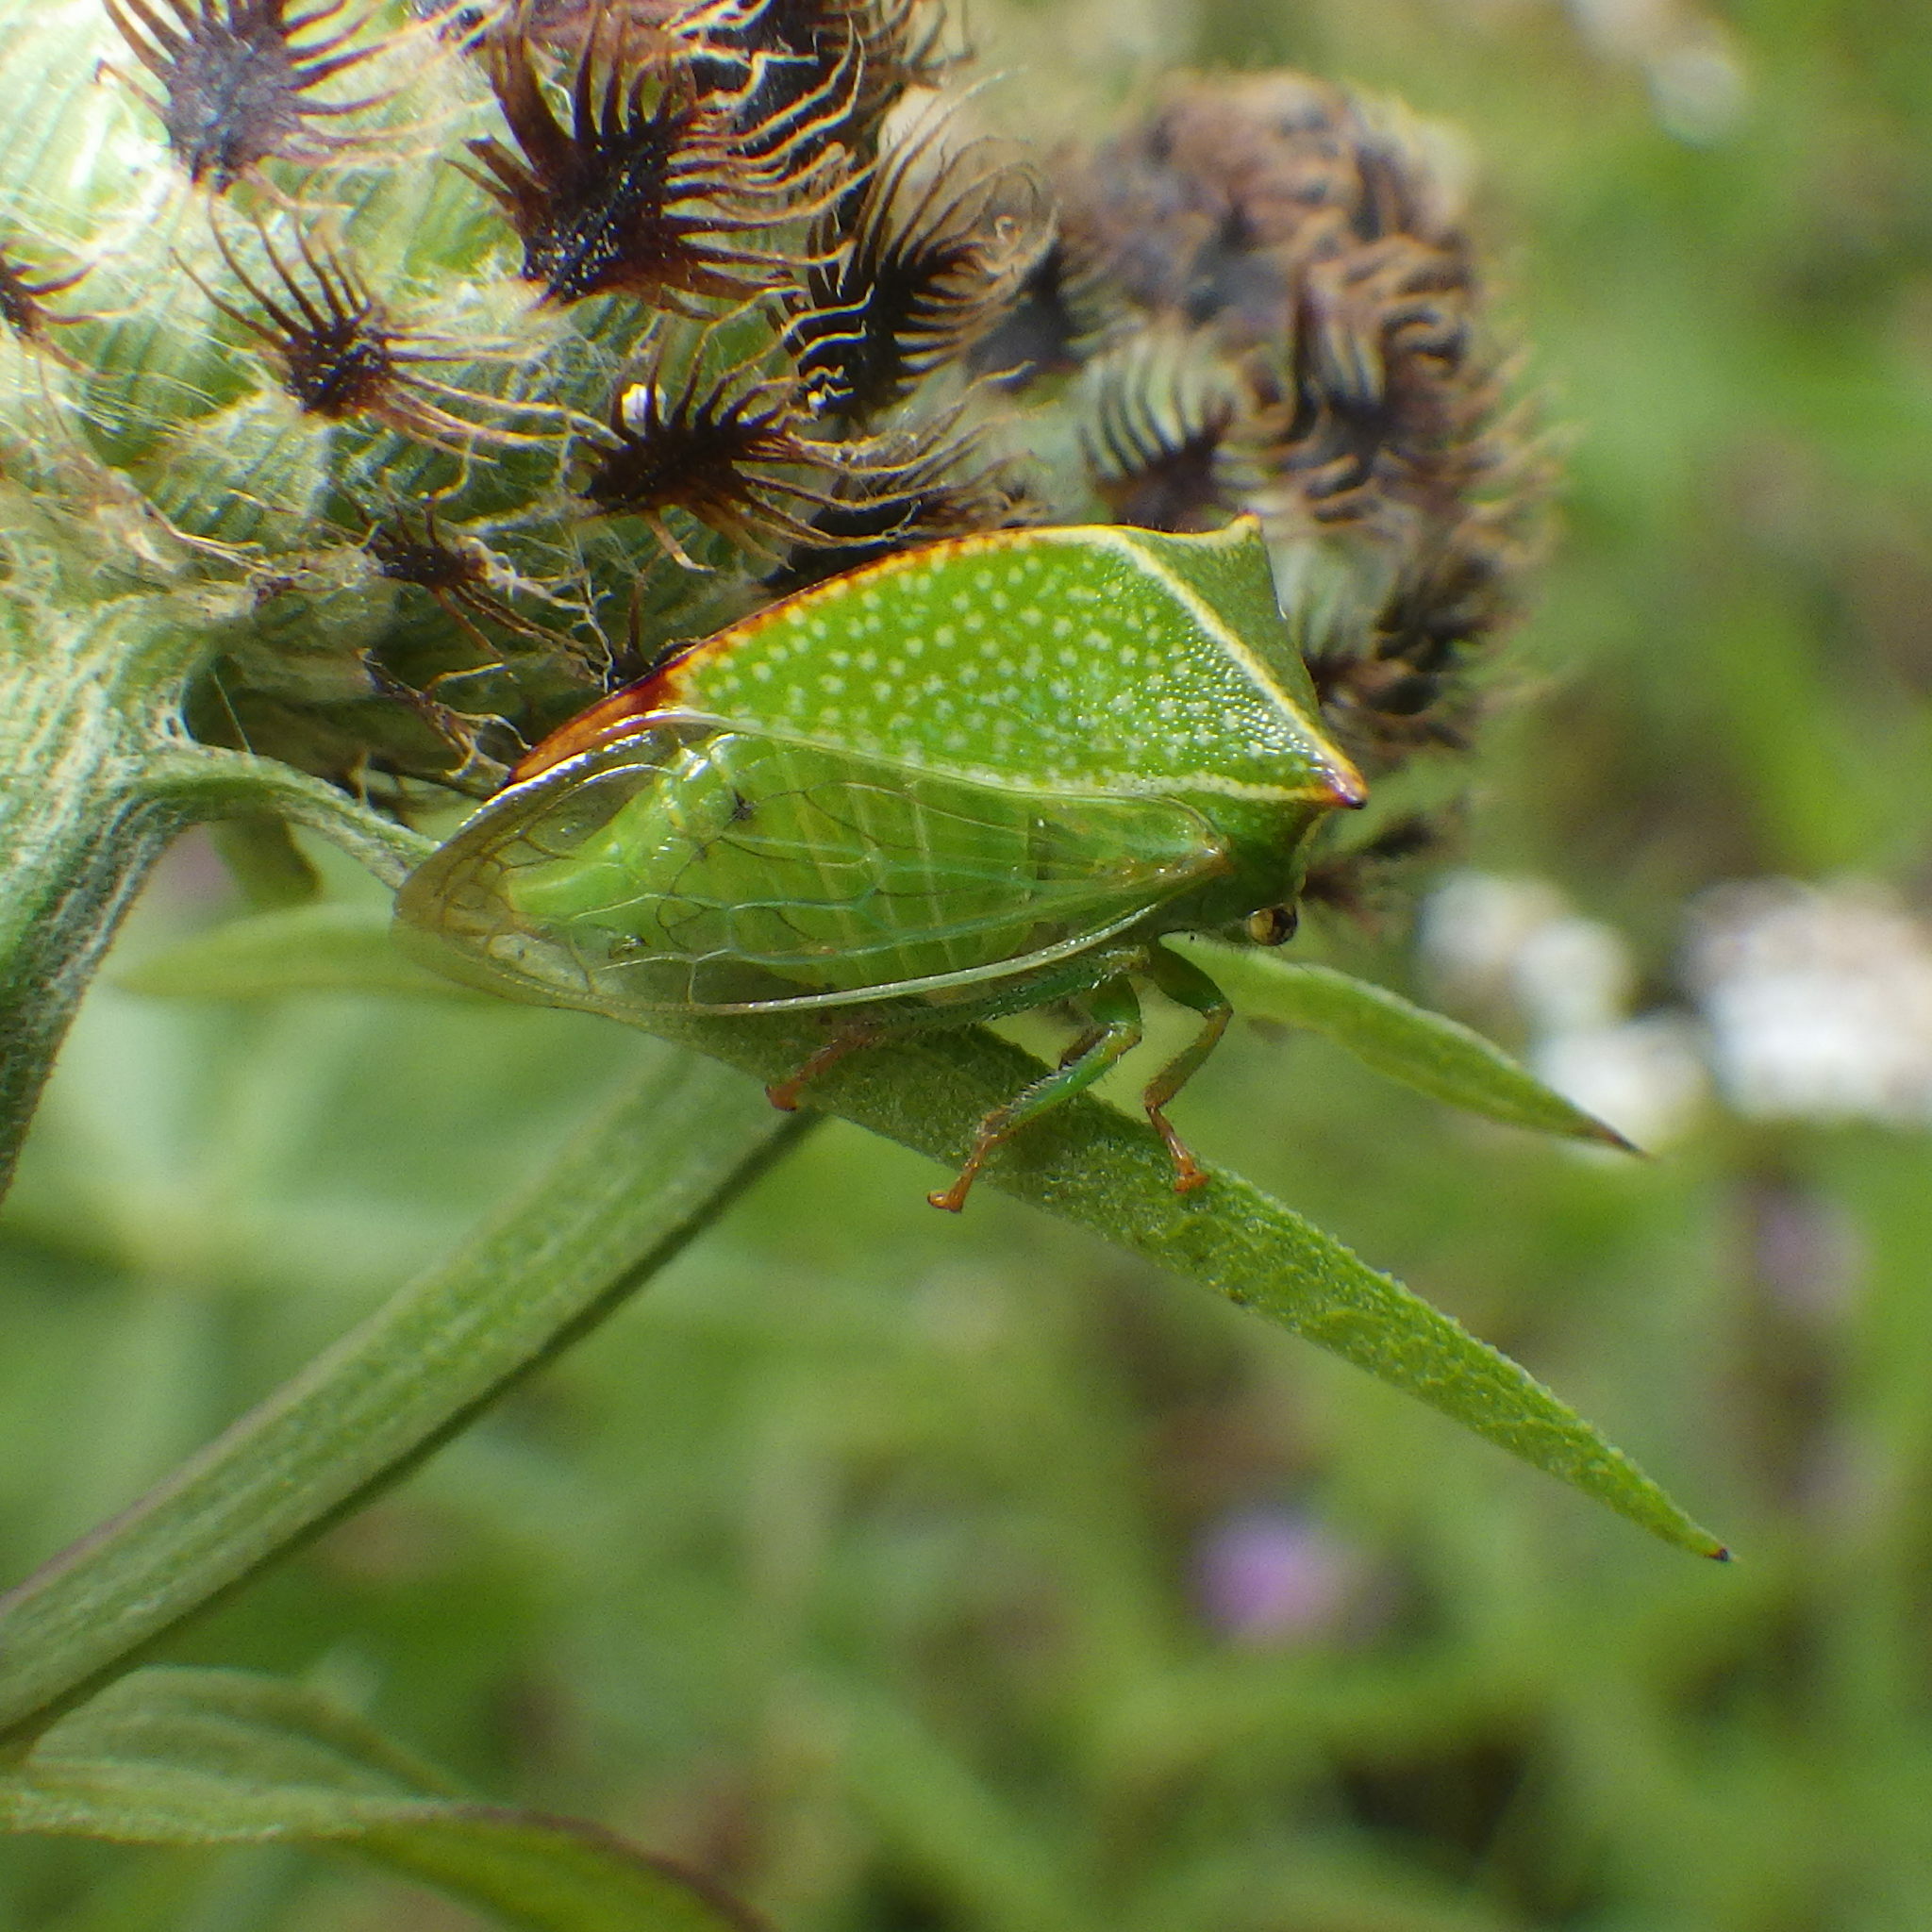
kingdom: Animalia
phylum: Arthropoda
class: Insecta
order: Hemiptera
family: Membracidae
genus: Stictocephala
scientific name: Stictocephala bisonia
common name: American buffalo treehopper
